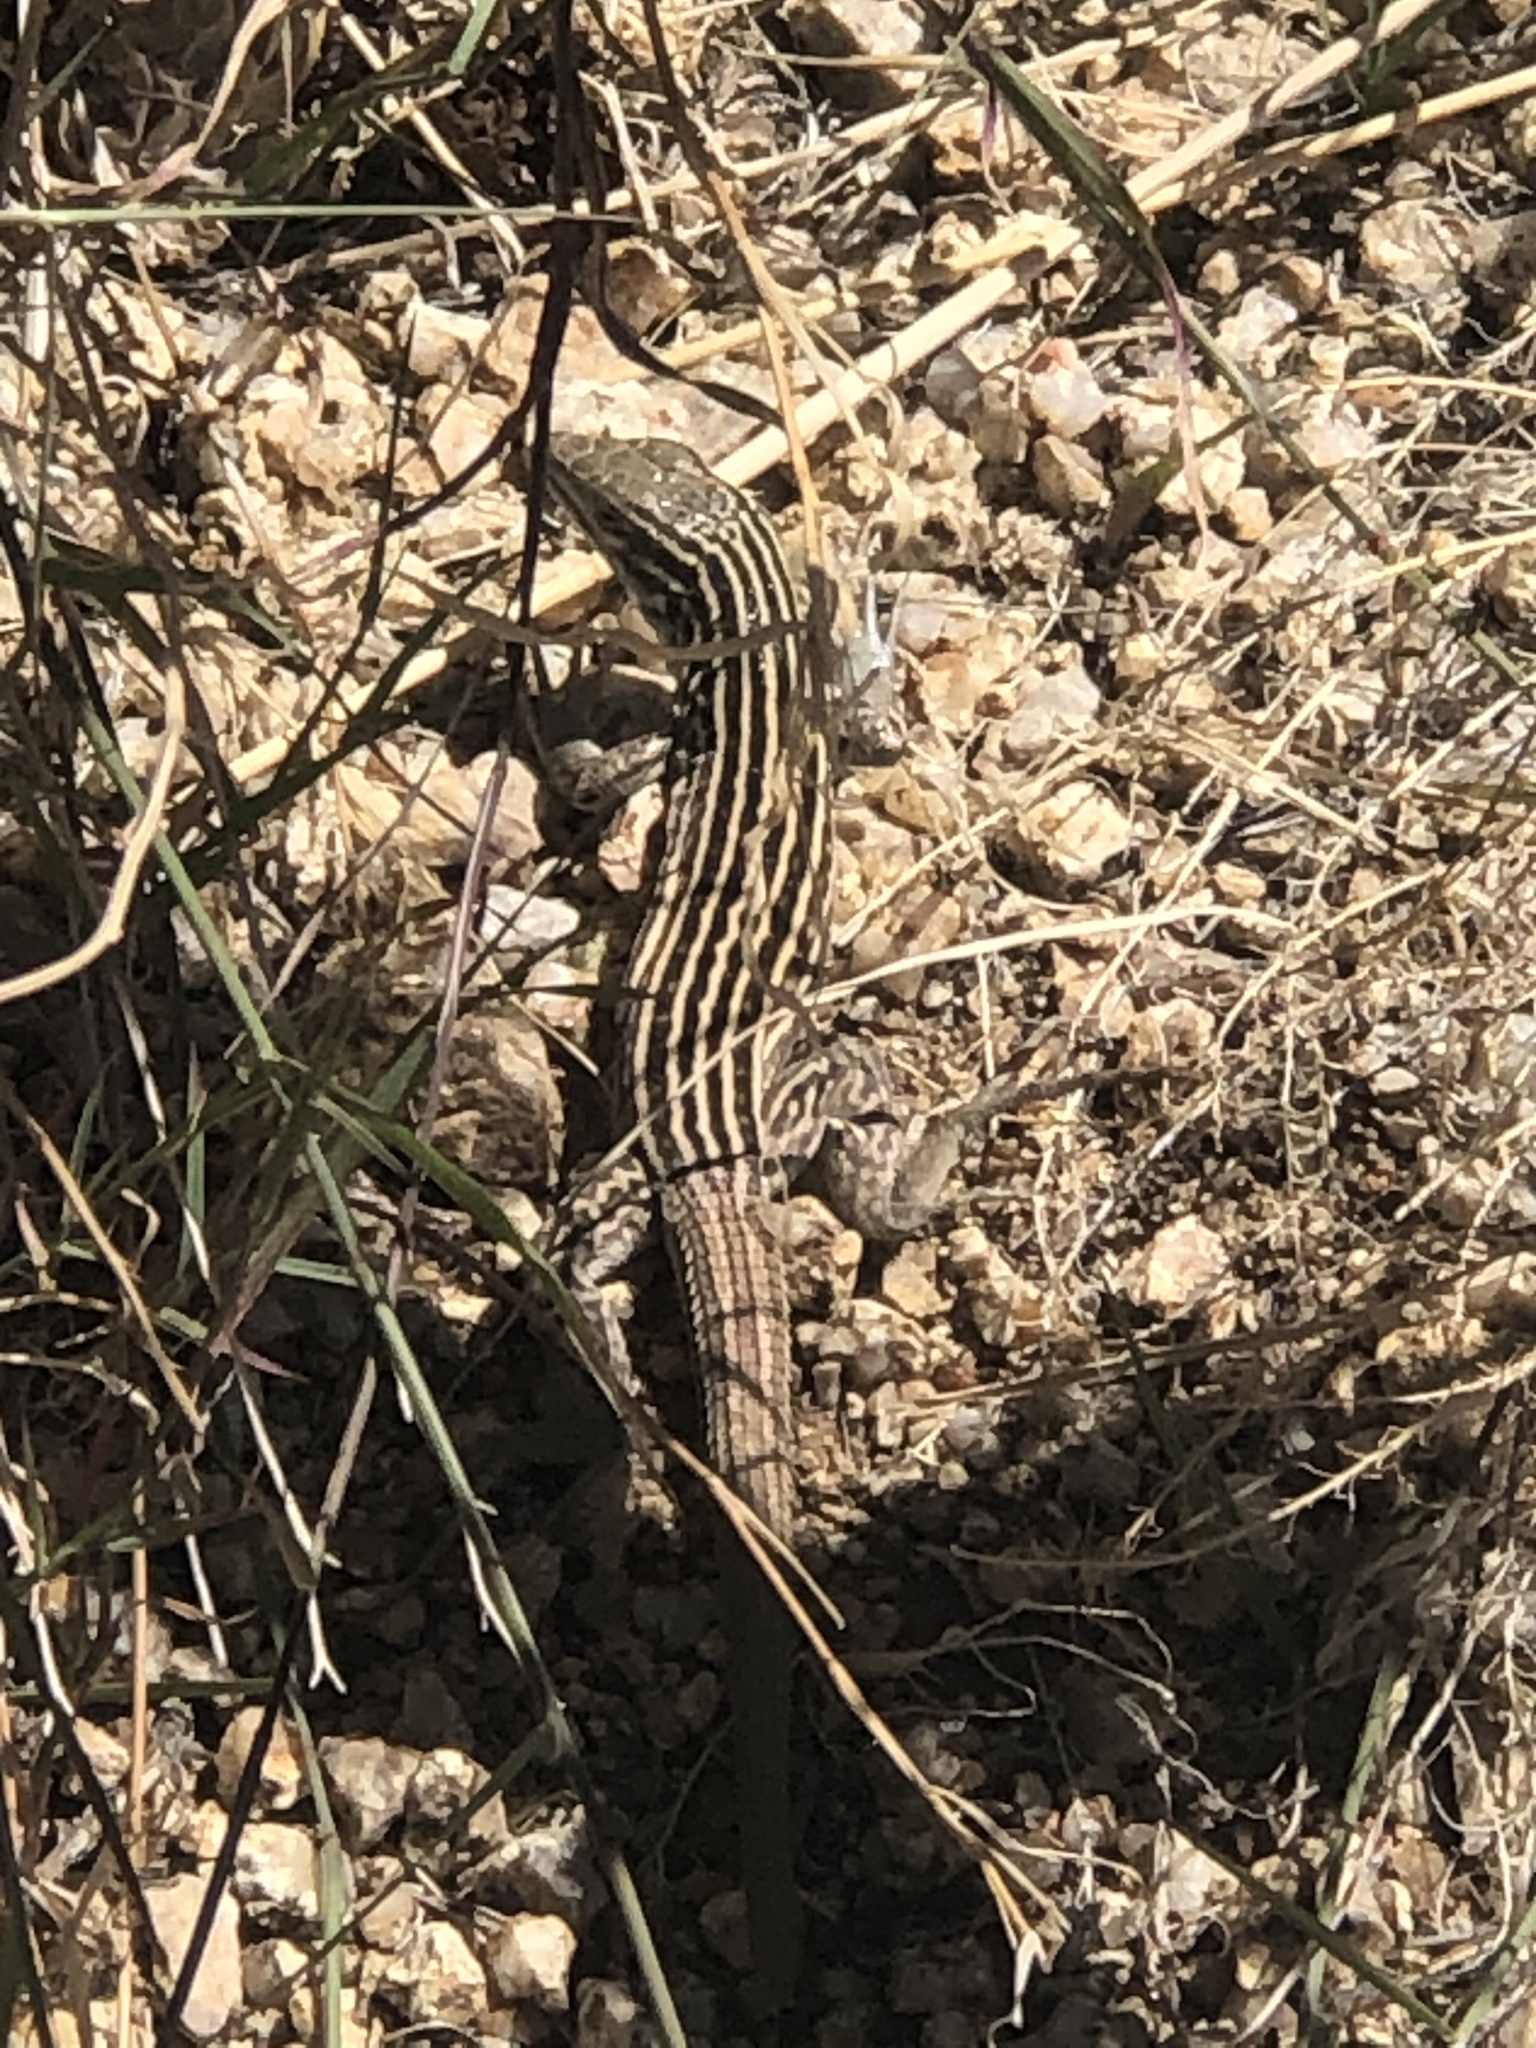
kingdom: Animalia
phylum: Chordata
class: Squamata
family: Teiidae
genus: Aspidoscelis
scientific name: Aspidoscelis neomexicanus
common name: New mexico whiptail
